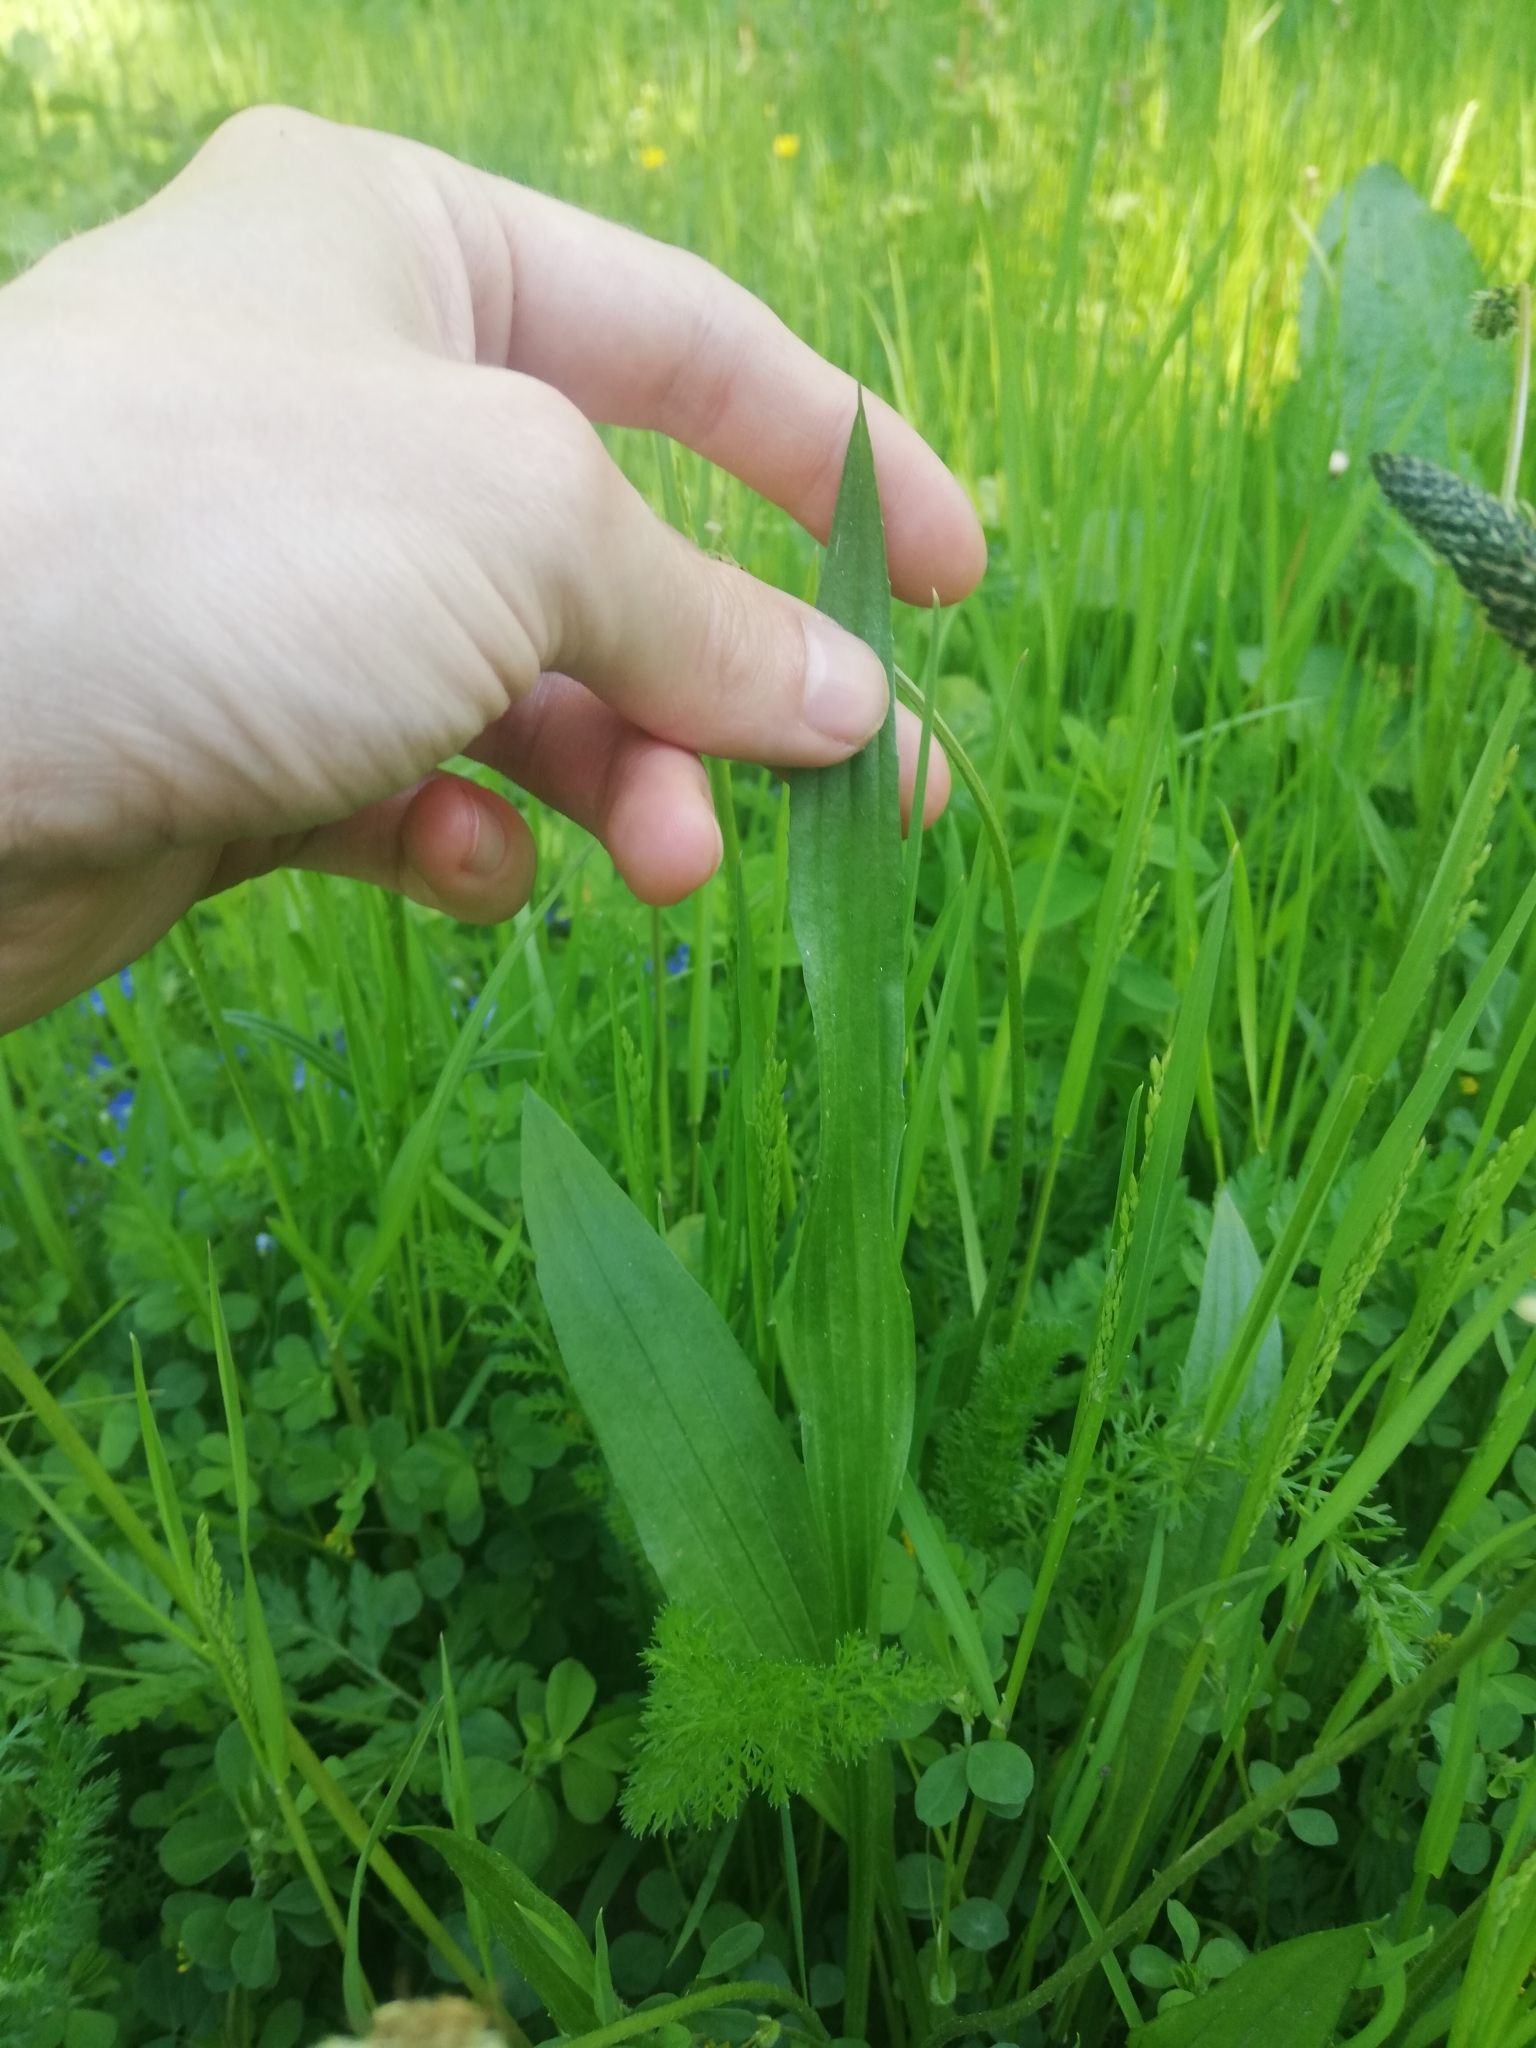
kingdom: Plantae
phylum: Tracheophyta
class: Magnoliopsida
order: Lamiales
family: Plantaginaceae
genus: Plantago
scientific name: Plantago lanceolata
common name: Ribwort plantain
